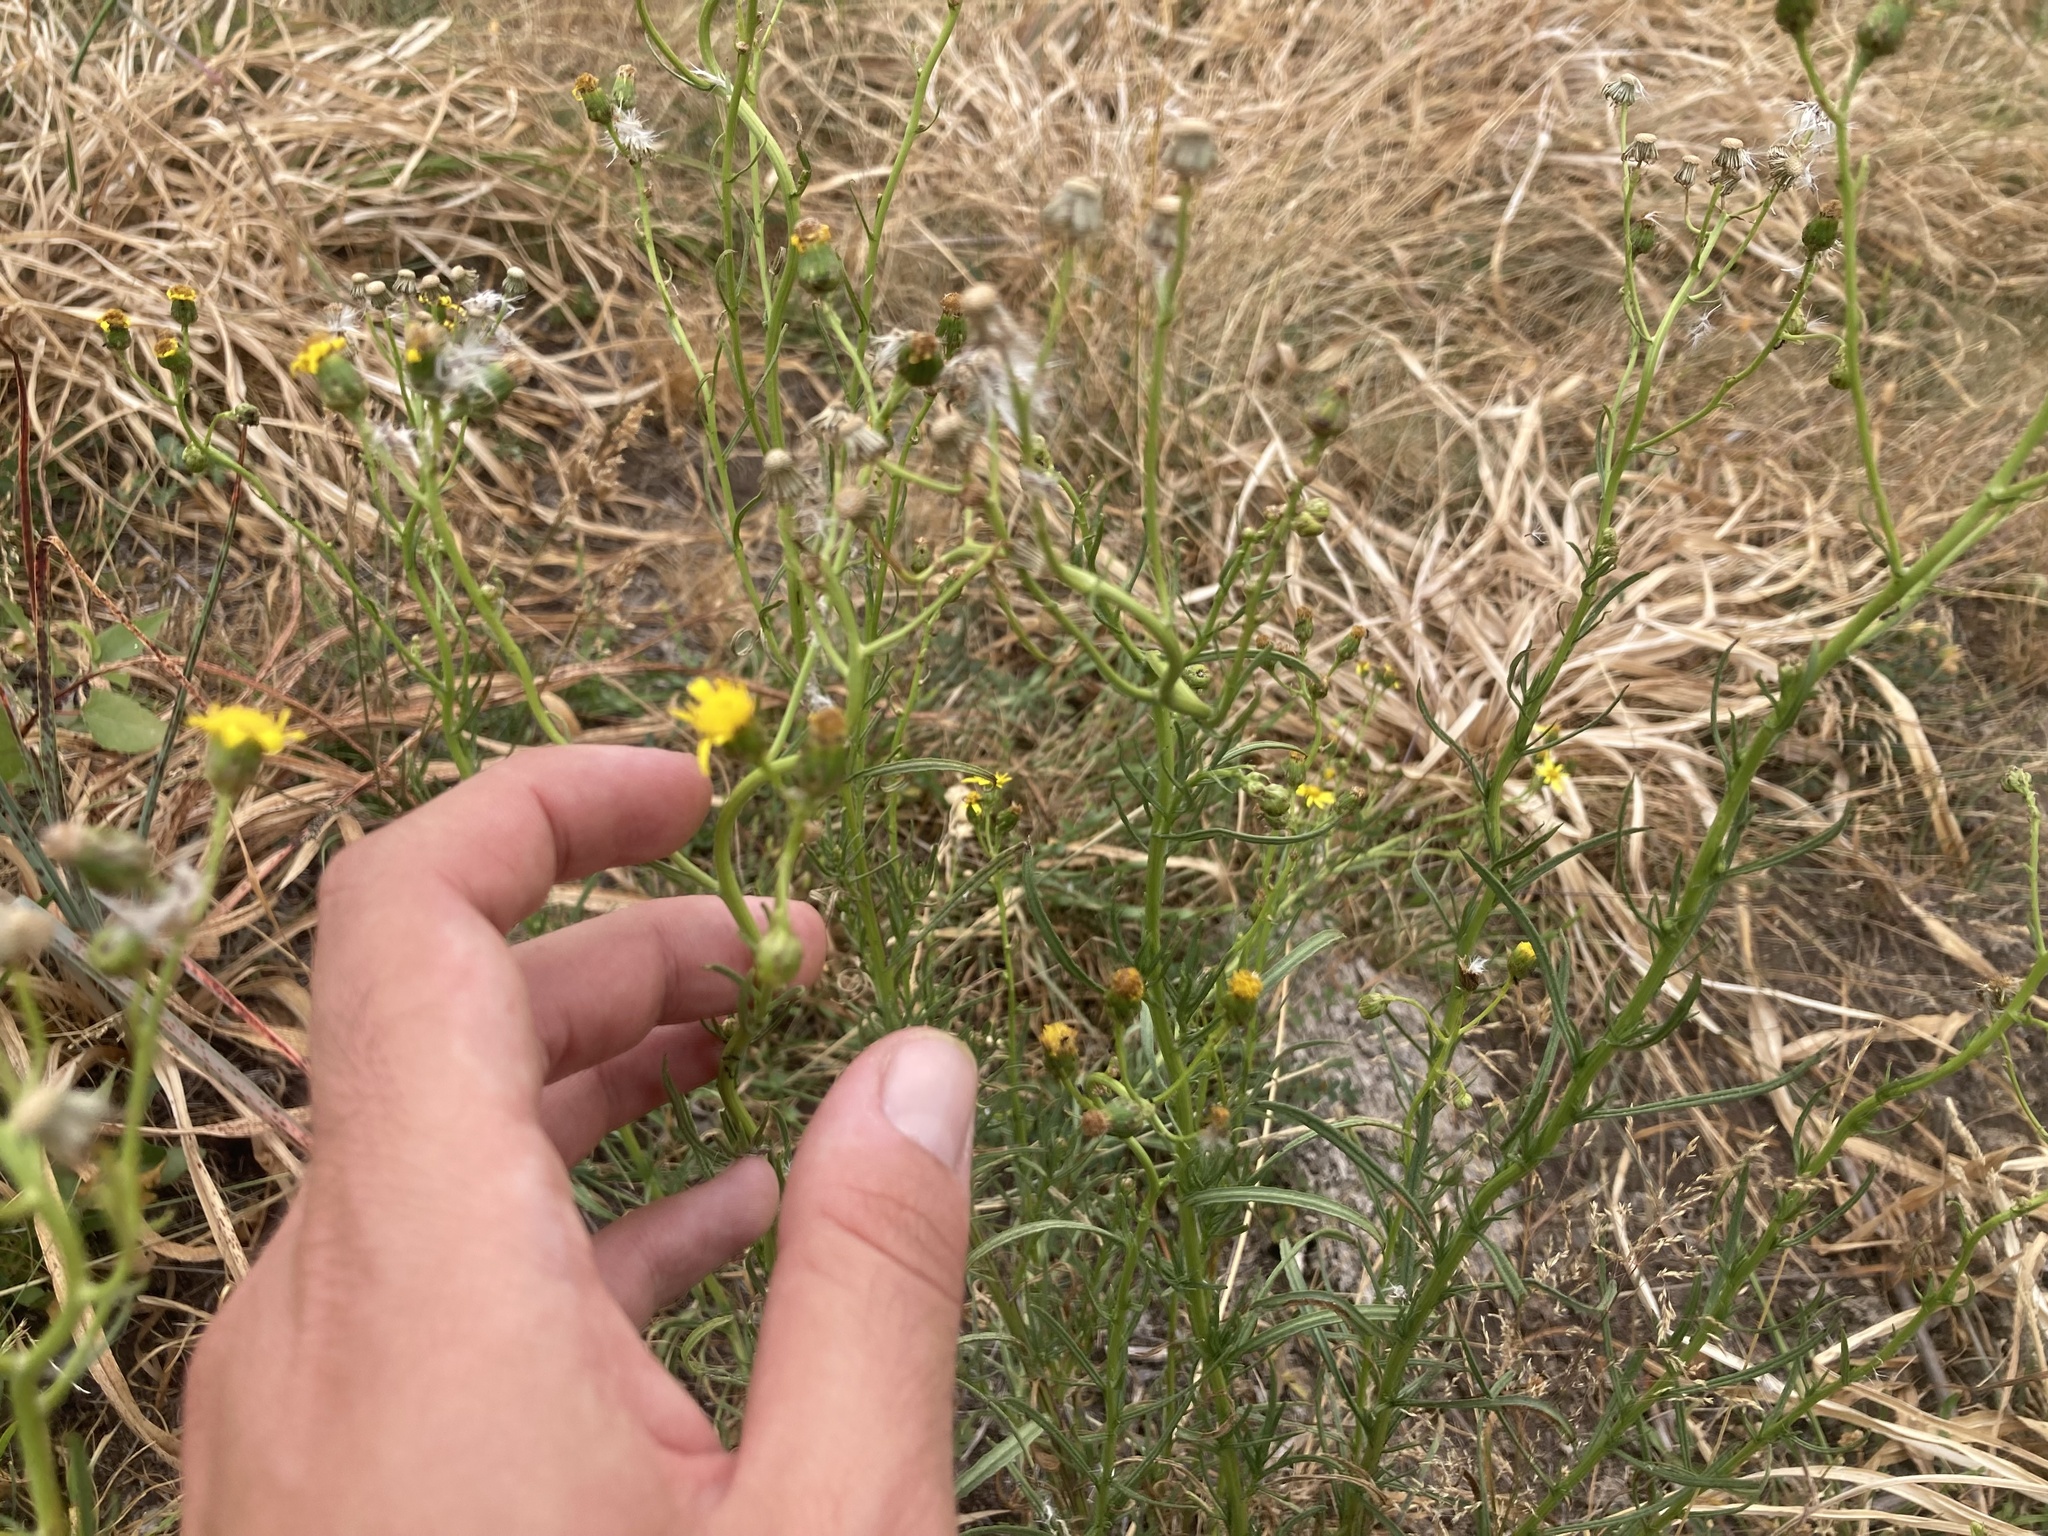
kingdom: Plantae
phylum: Tracheophyta
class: Magnoliopsida
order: Asterales
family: Asteraceae
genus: Senecio
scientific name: Senecio inaequidens
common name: Narrow-leaved ragwort
